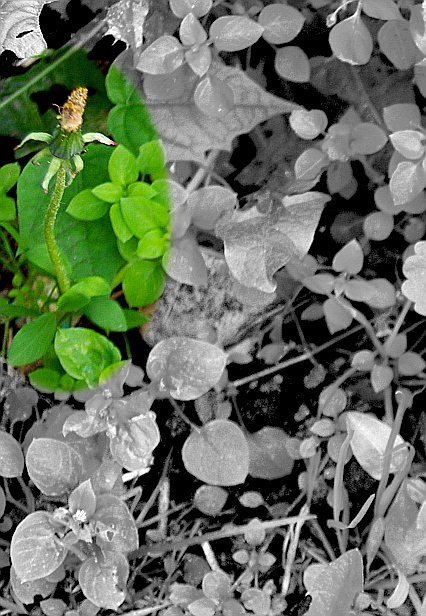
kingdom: Plantae
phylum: Tracheophyta
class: Magnoliopsida
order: Asterales
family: Asteraceae
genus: Taraxacum
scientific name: Taraxacum officinale
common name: Common dandelion
